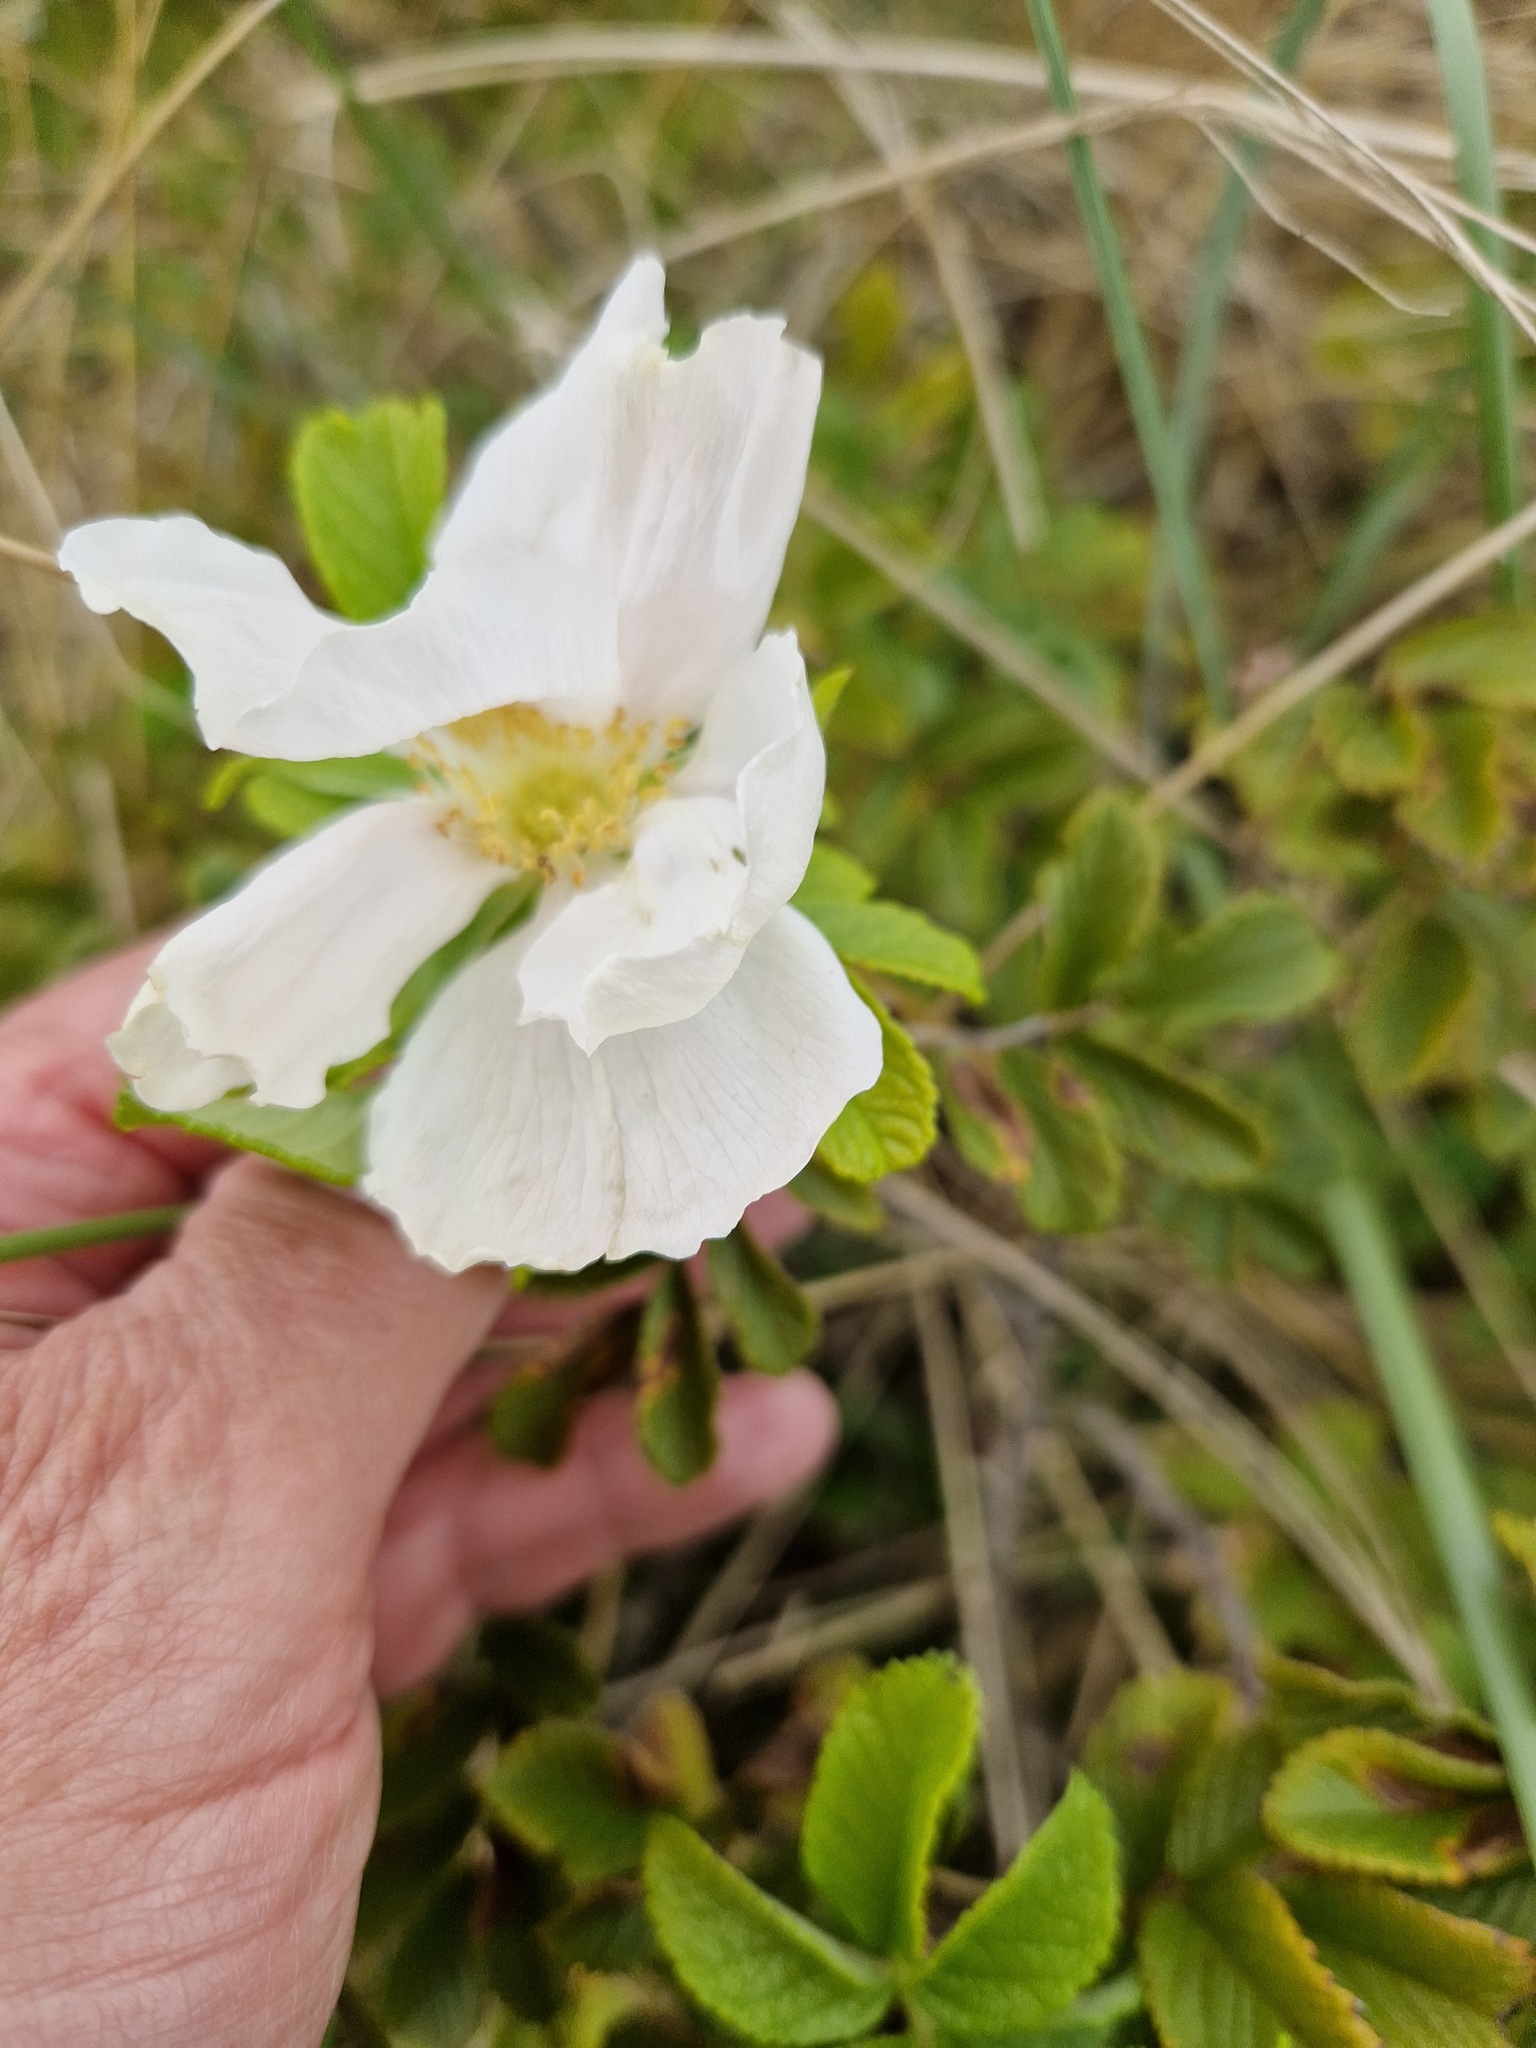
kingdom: Plantae
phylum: Tracheophyta
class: Magnoliopsida
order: Rosales
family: Rosaceae
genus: Rosa
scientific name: Rosa spinosissima
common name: Burnet rose
